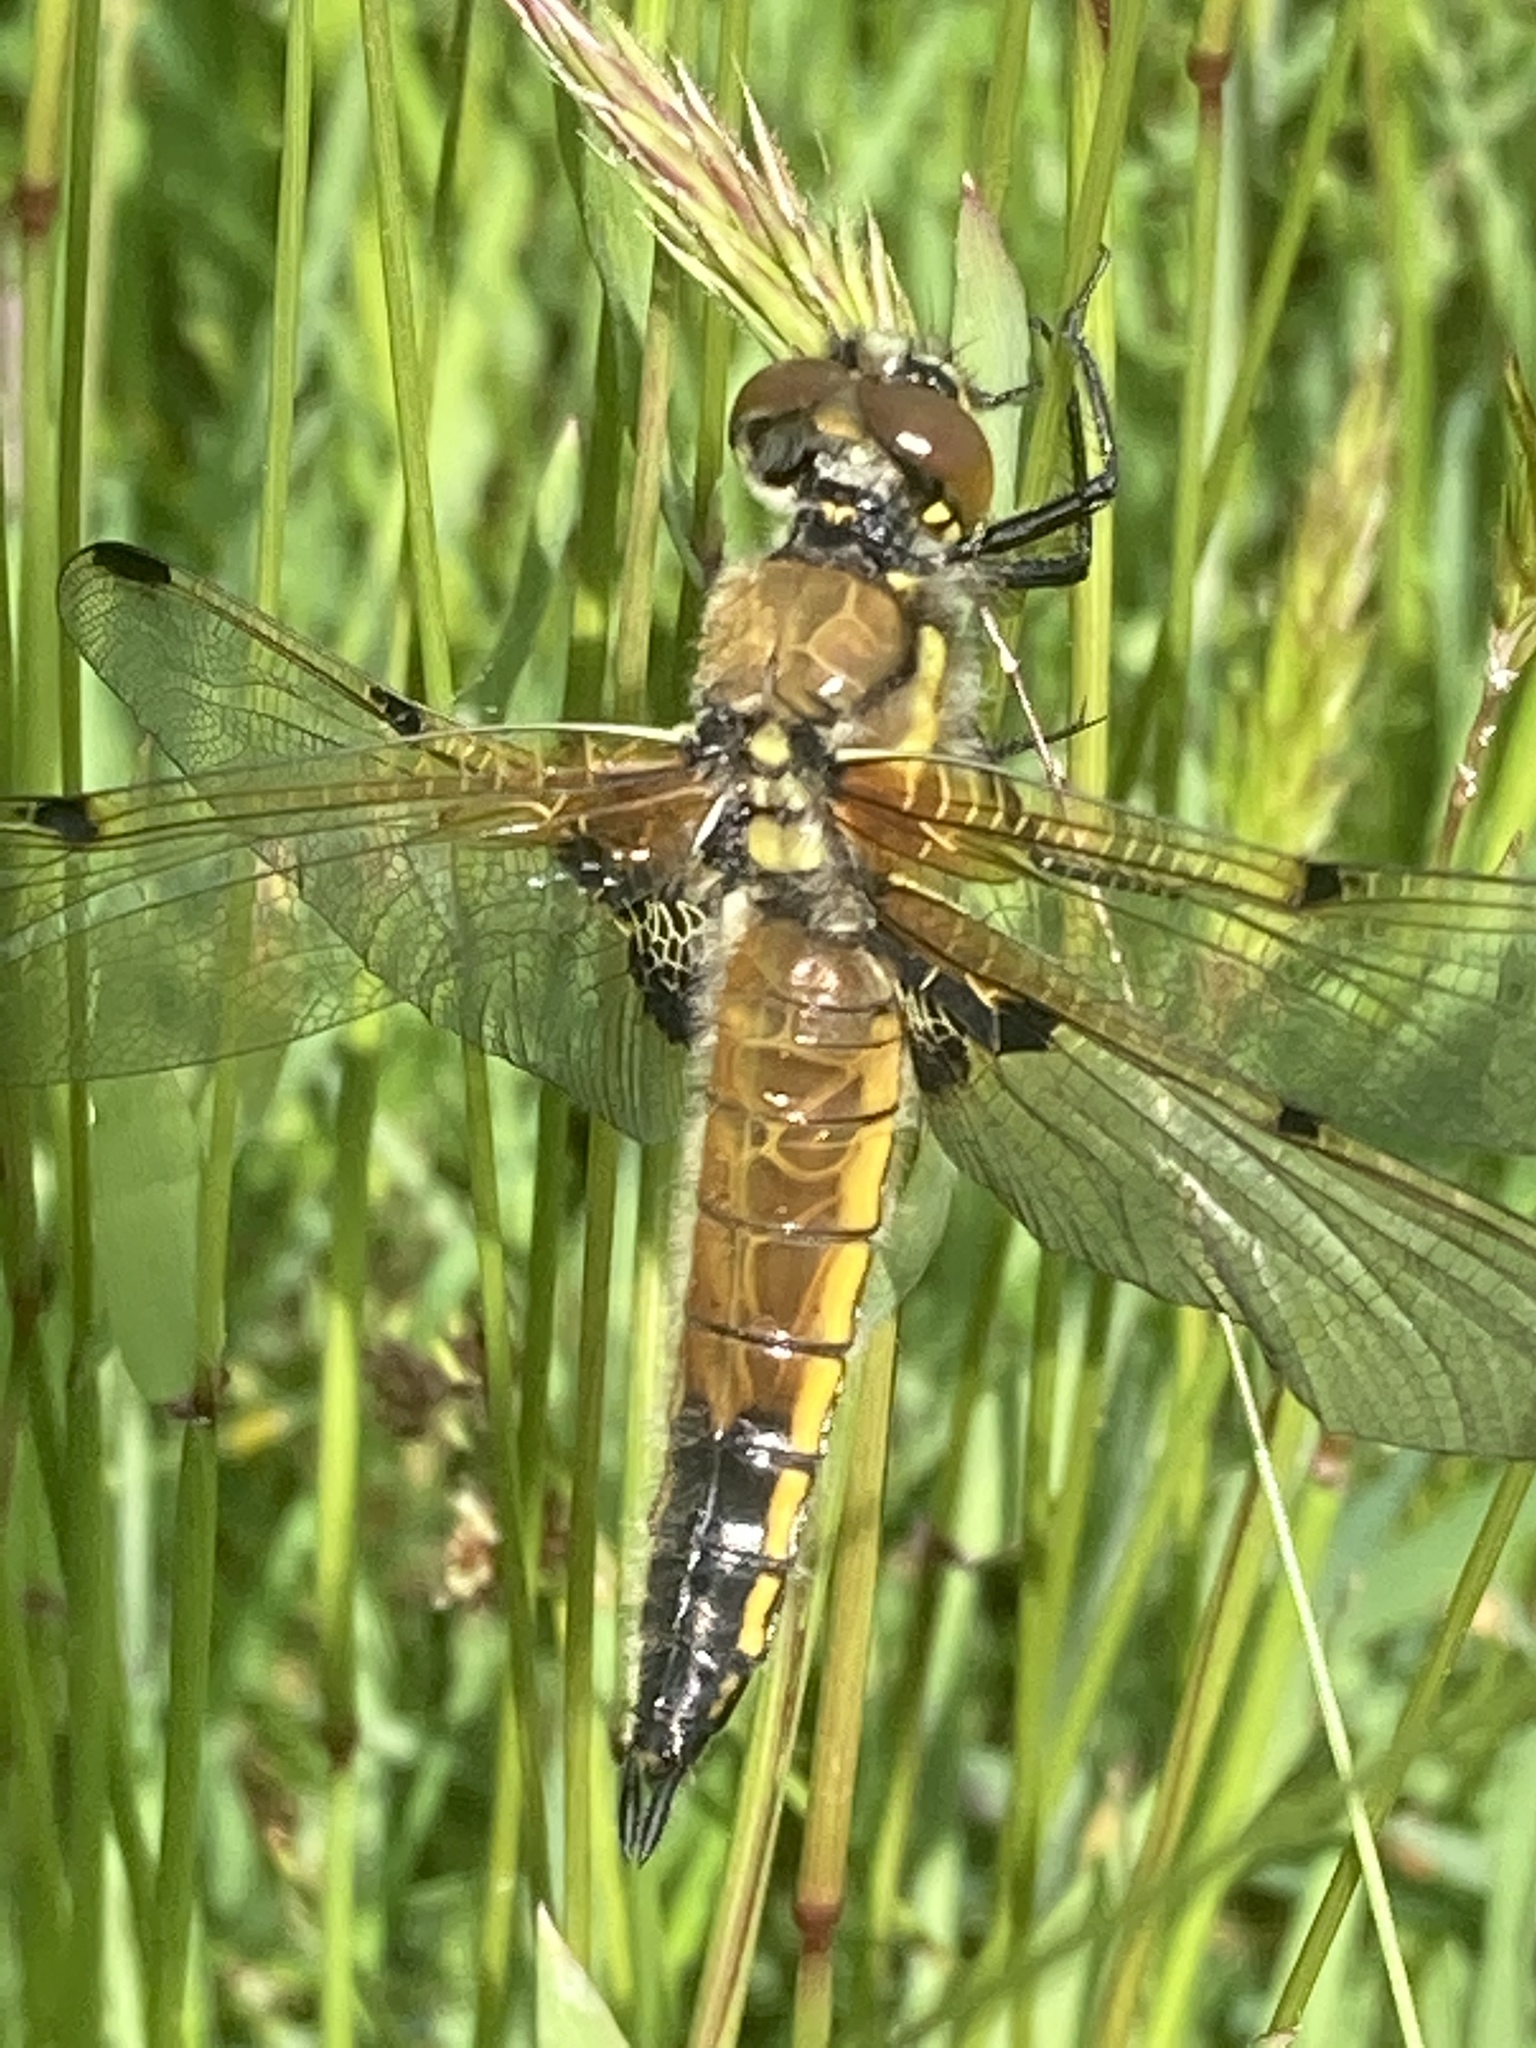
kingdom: Animalia
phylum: Arthropoda
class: Insecta
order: Odonata
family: Libellulidae
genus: Libellula
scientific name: Libellula quadrimaculata
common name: Four-spotted chaser
